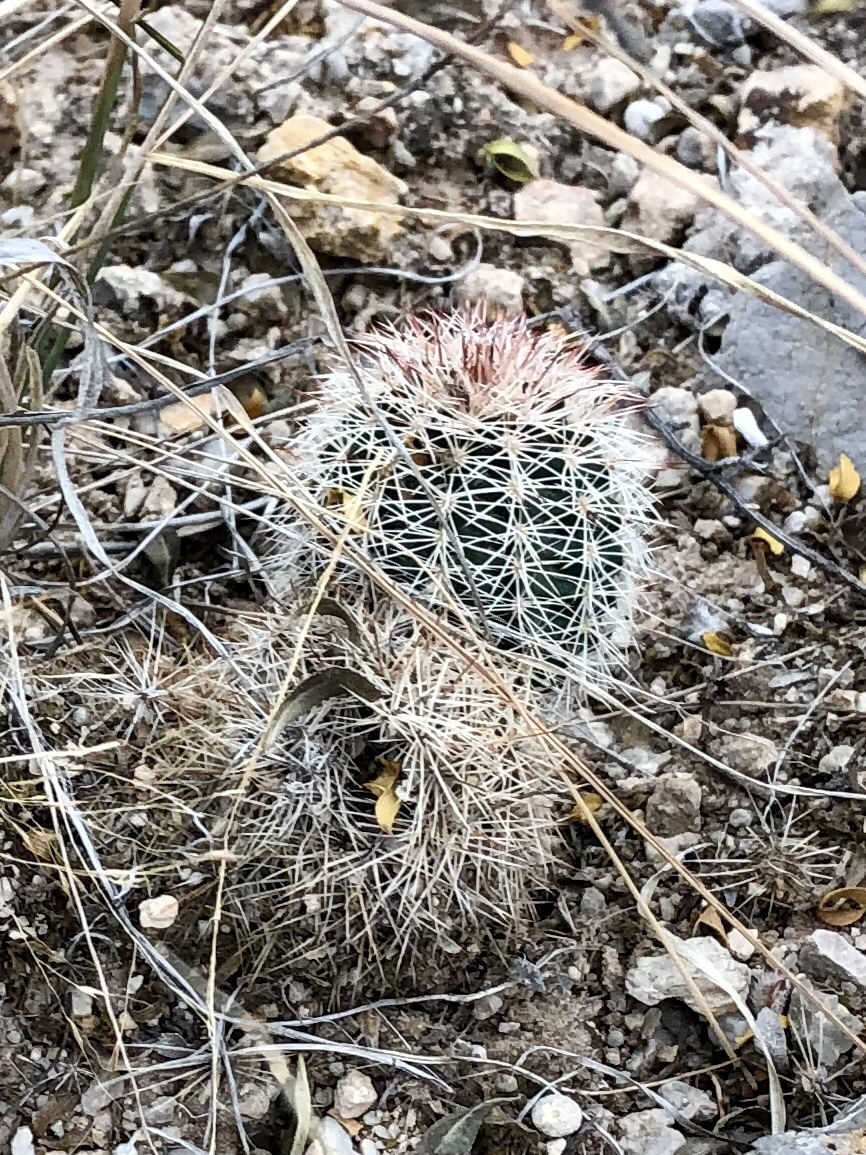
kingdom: Plantae
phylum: Tracheophyta
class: Magnoliopsida
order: Caryophyllales
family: Cactaceae
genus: Echinocereus
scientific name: Echinocereus roetteri
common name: Lloyd's hedgehog cactus
